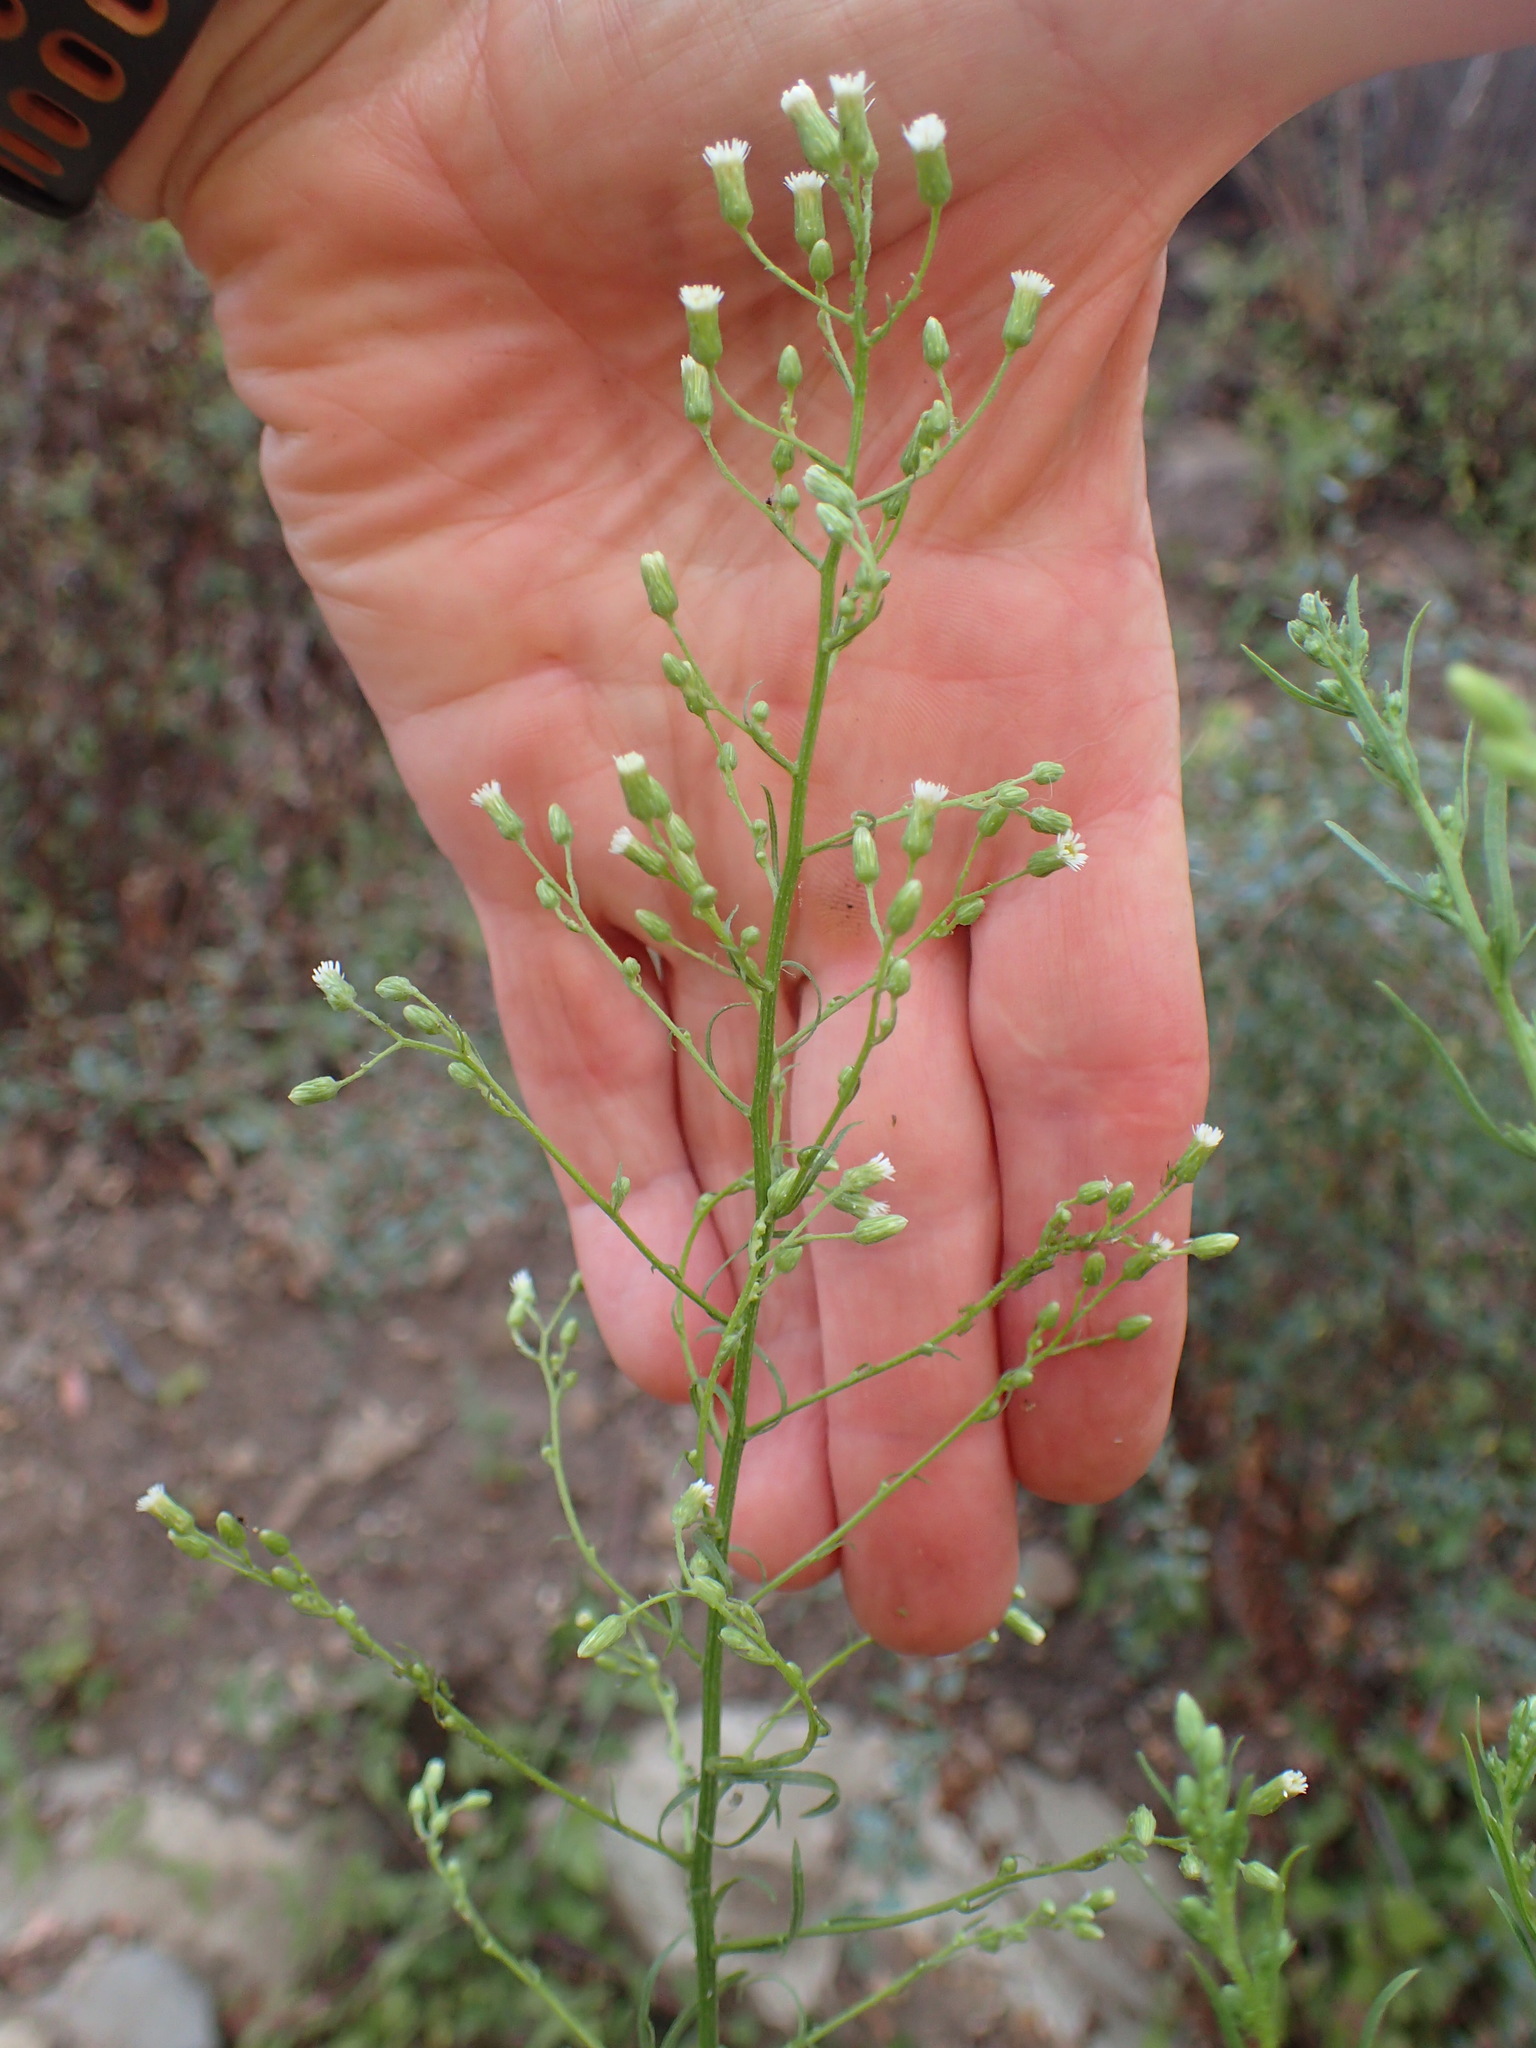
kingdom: Plantae
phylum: Tracheophyta
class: Magnoliopsida
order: Asterales
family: Asteraceae
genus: Erigeron
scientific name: Erigeron canadensis
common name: Canadian fleabane
